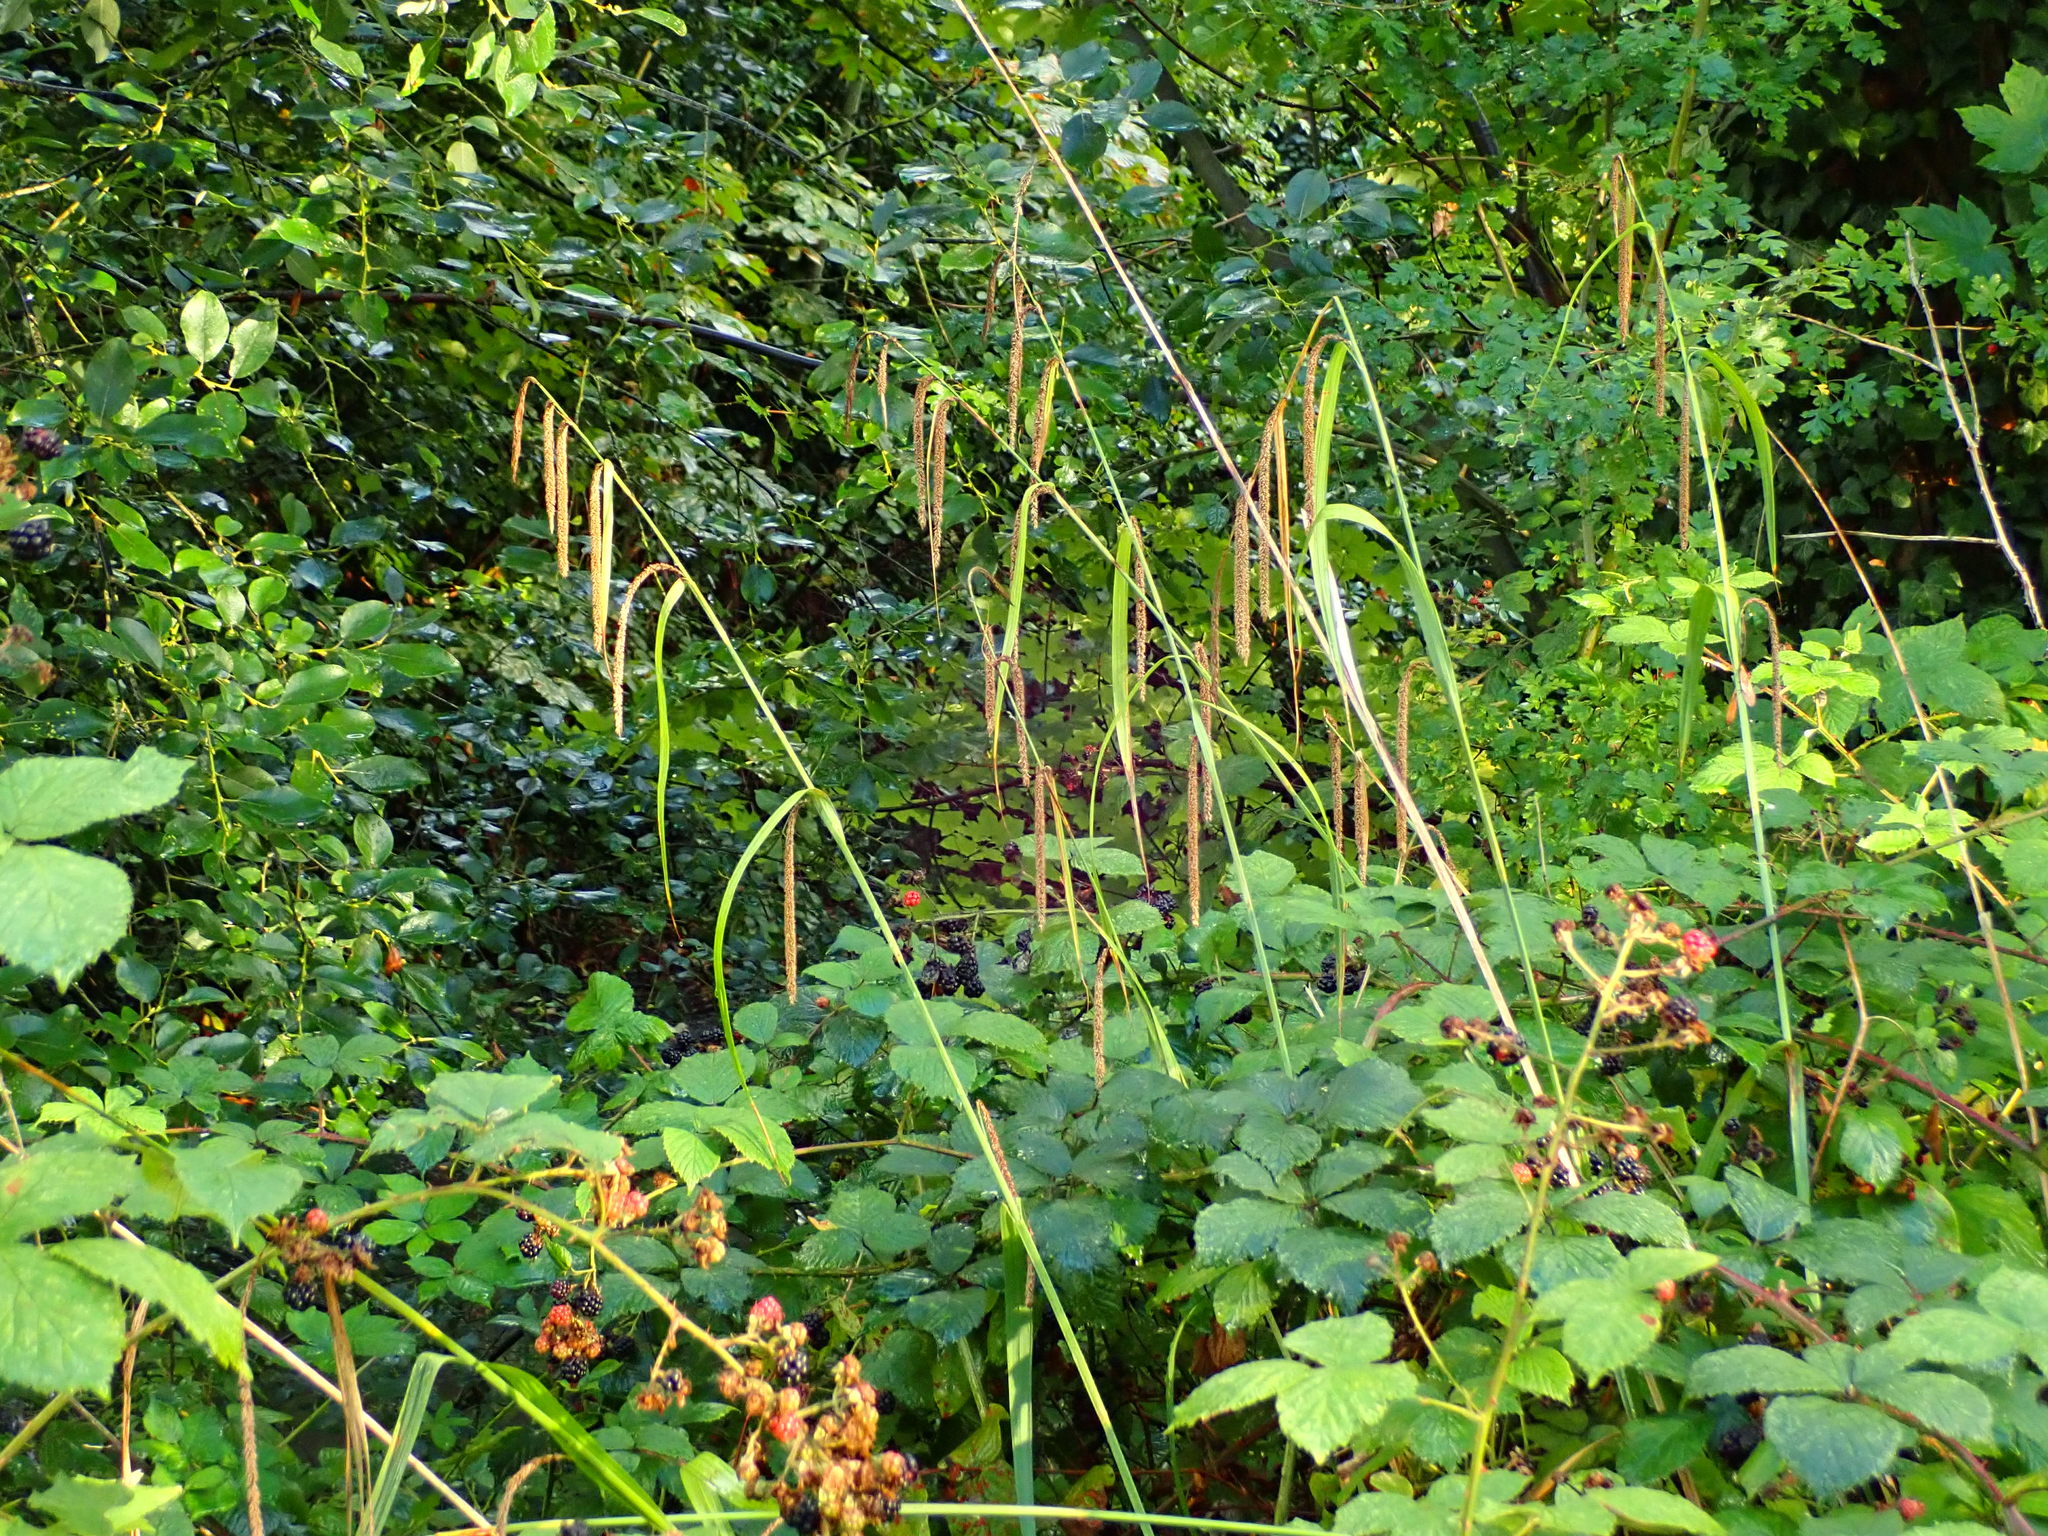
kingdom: Plantae
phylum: Tracheophyta
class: Liliopsida
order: Poales
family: Cyperaceae
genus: Carex
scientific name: Carex pendula
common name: Pendulous sedge
